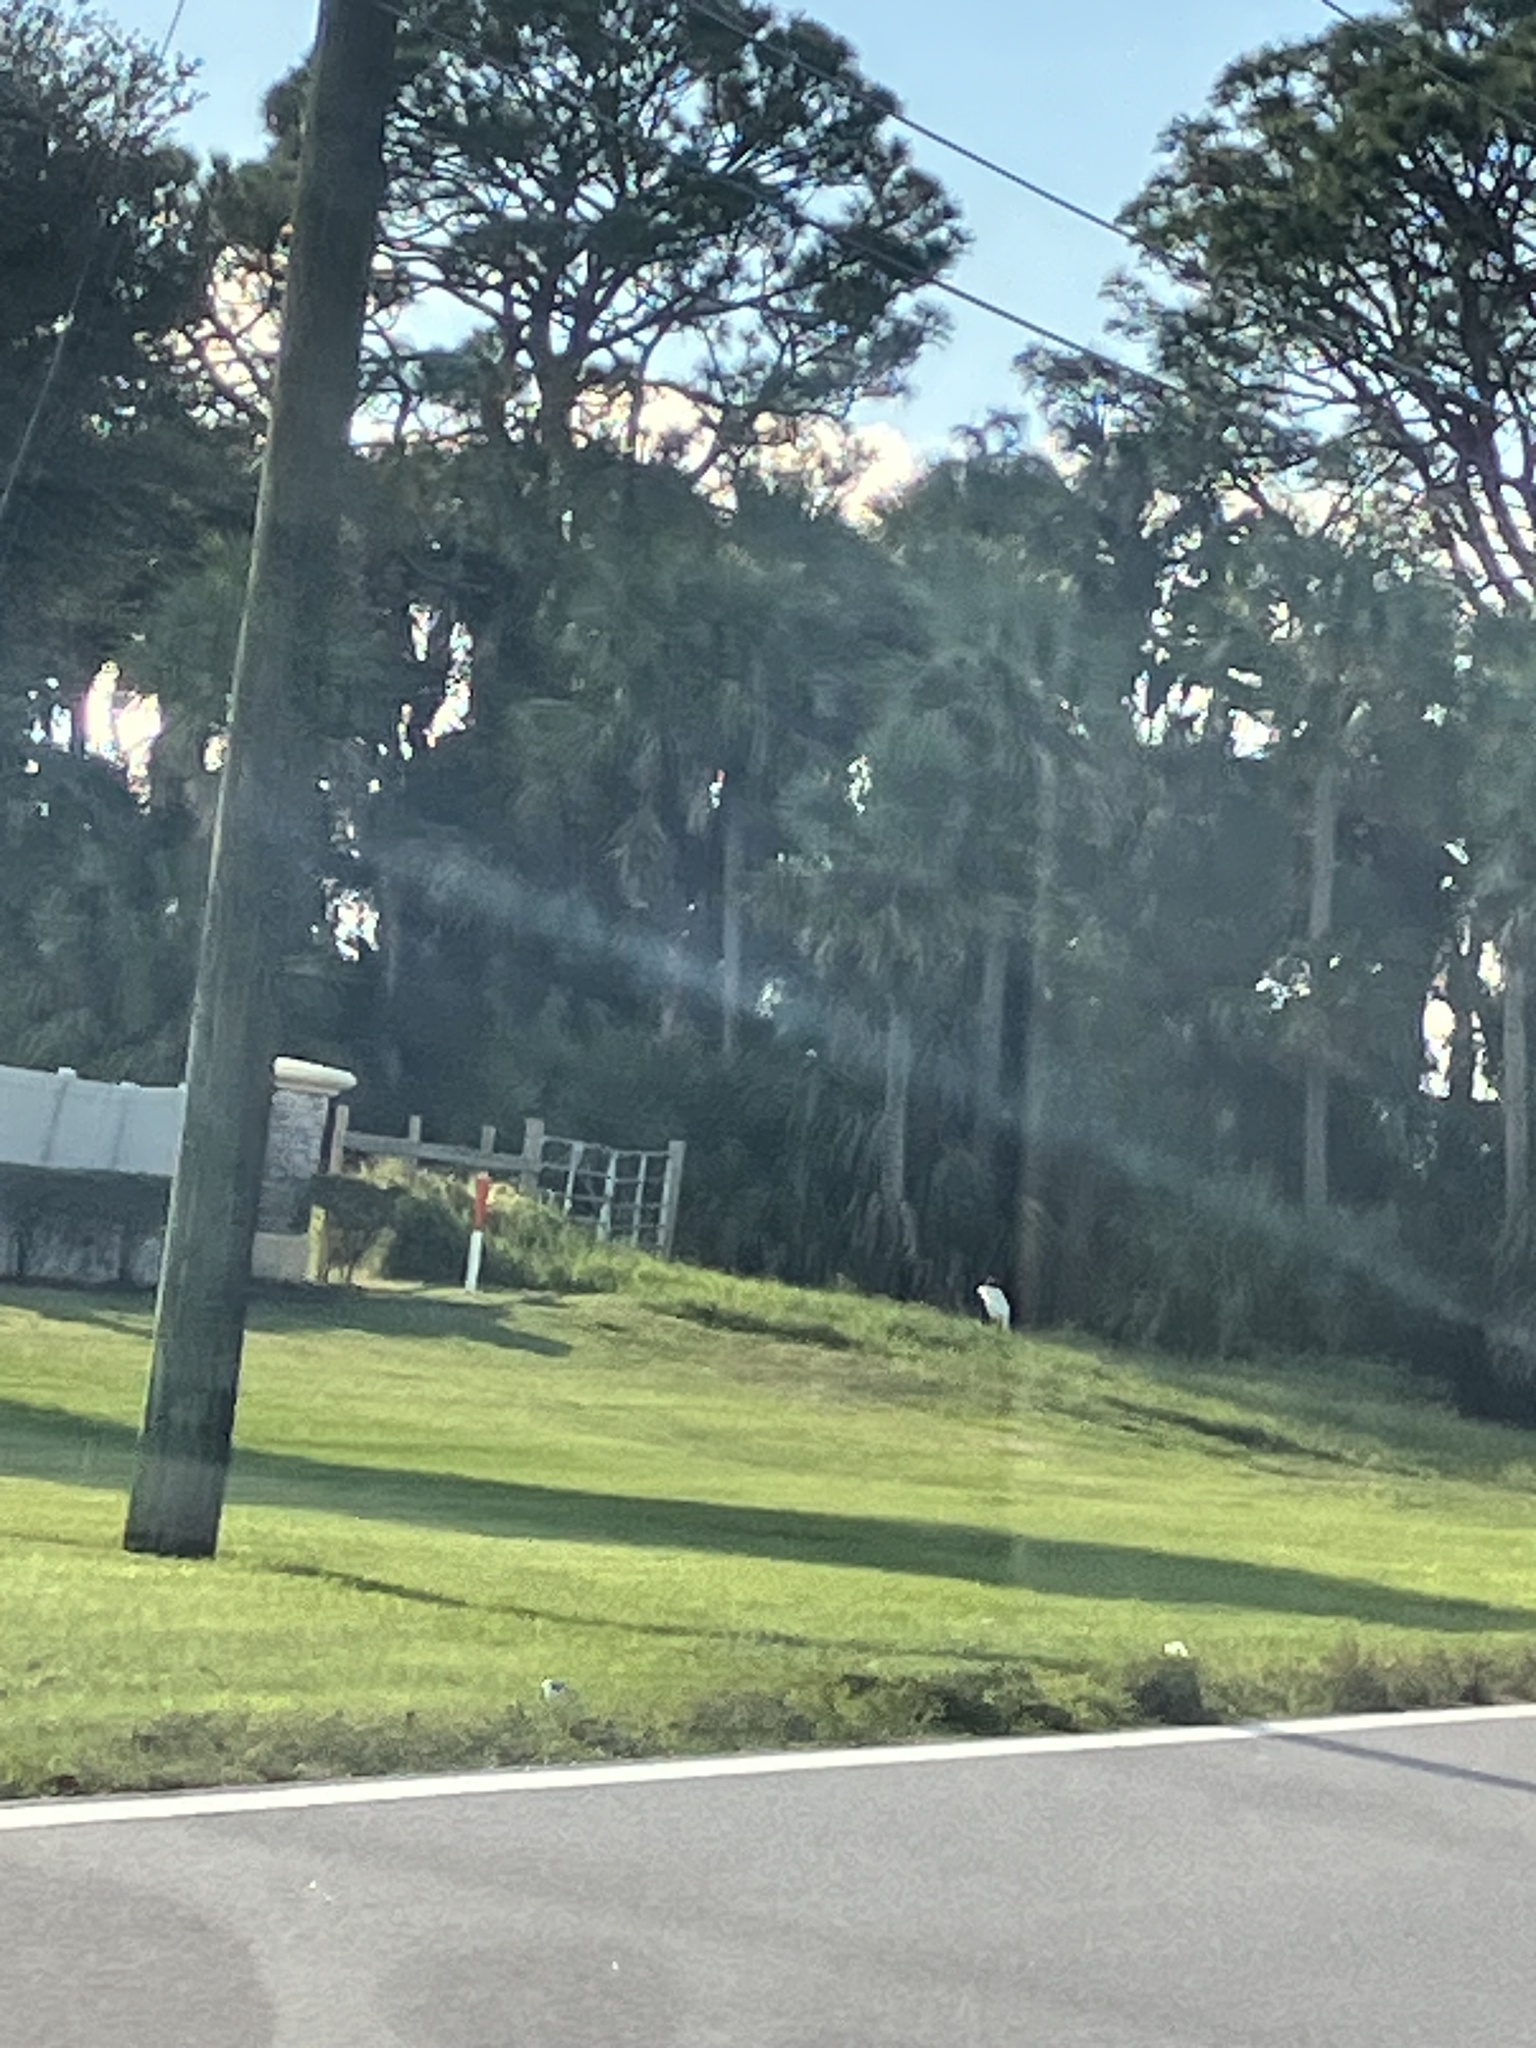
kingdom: Animalia
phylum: Chordata
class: Aves
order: Ciconiiformes
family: Ciconiidae
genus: Mycteria
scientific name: Mycteria americana
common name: Wood stork
